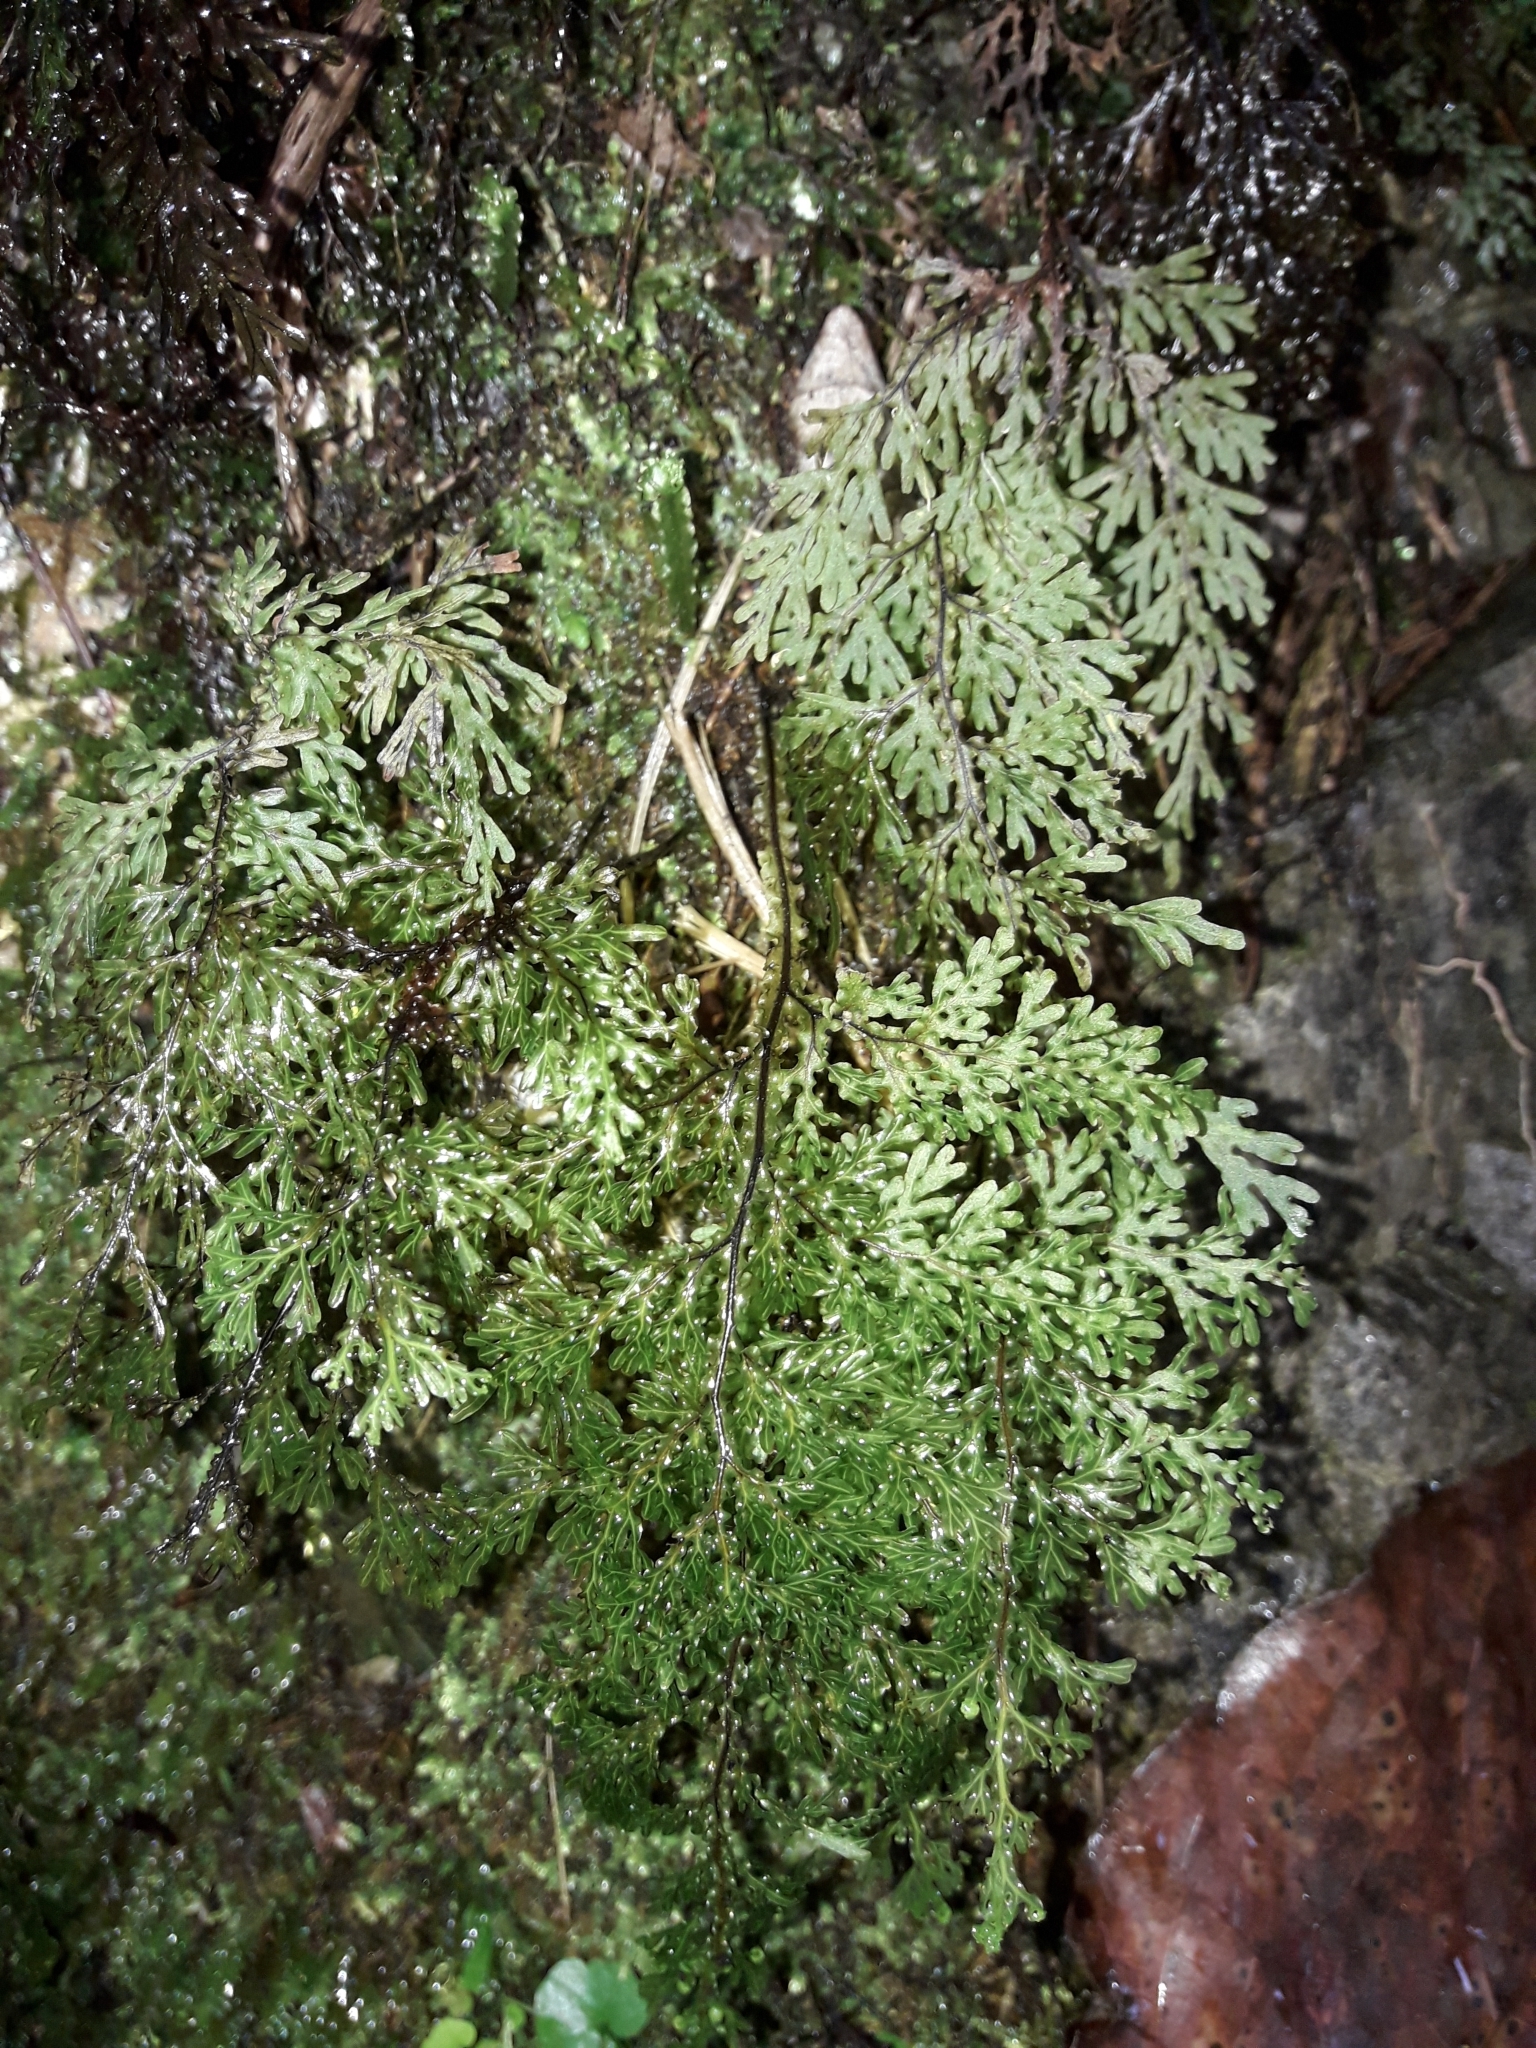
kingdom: Plantae
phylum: Tracheophyta
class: Polypodiopsida
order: Hymenophyllales
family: Hymenophyllaceae
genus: Hymenophyllum
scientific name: Hymenophyllum flexuosum
